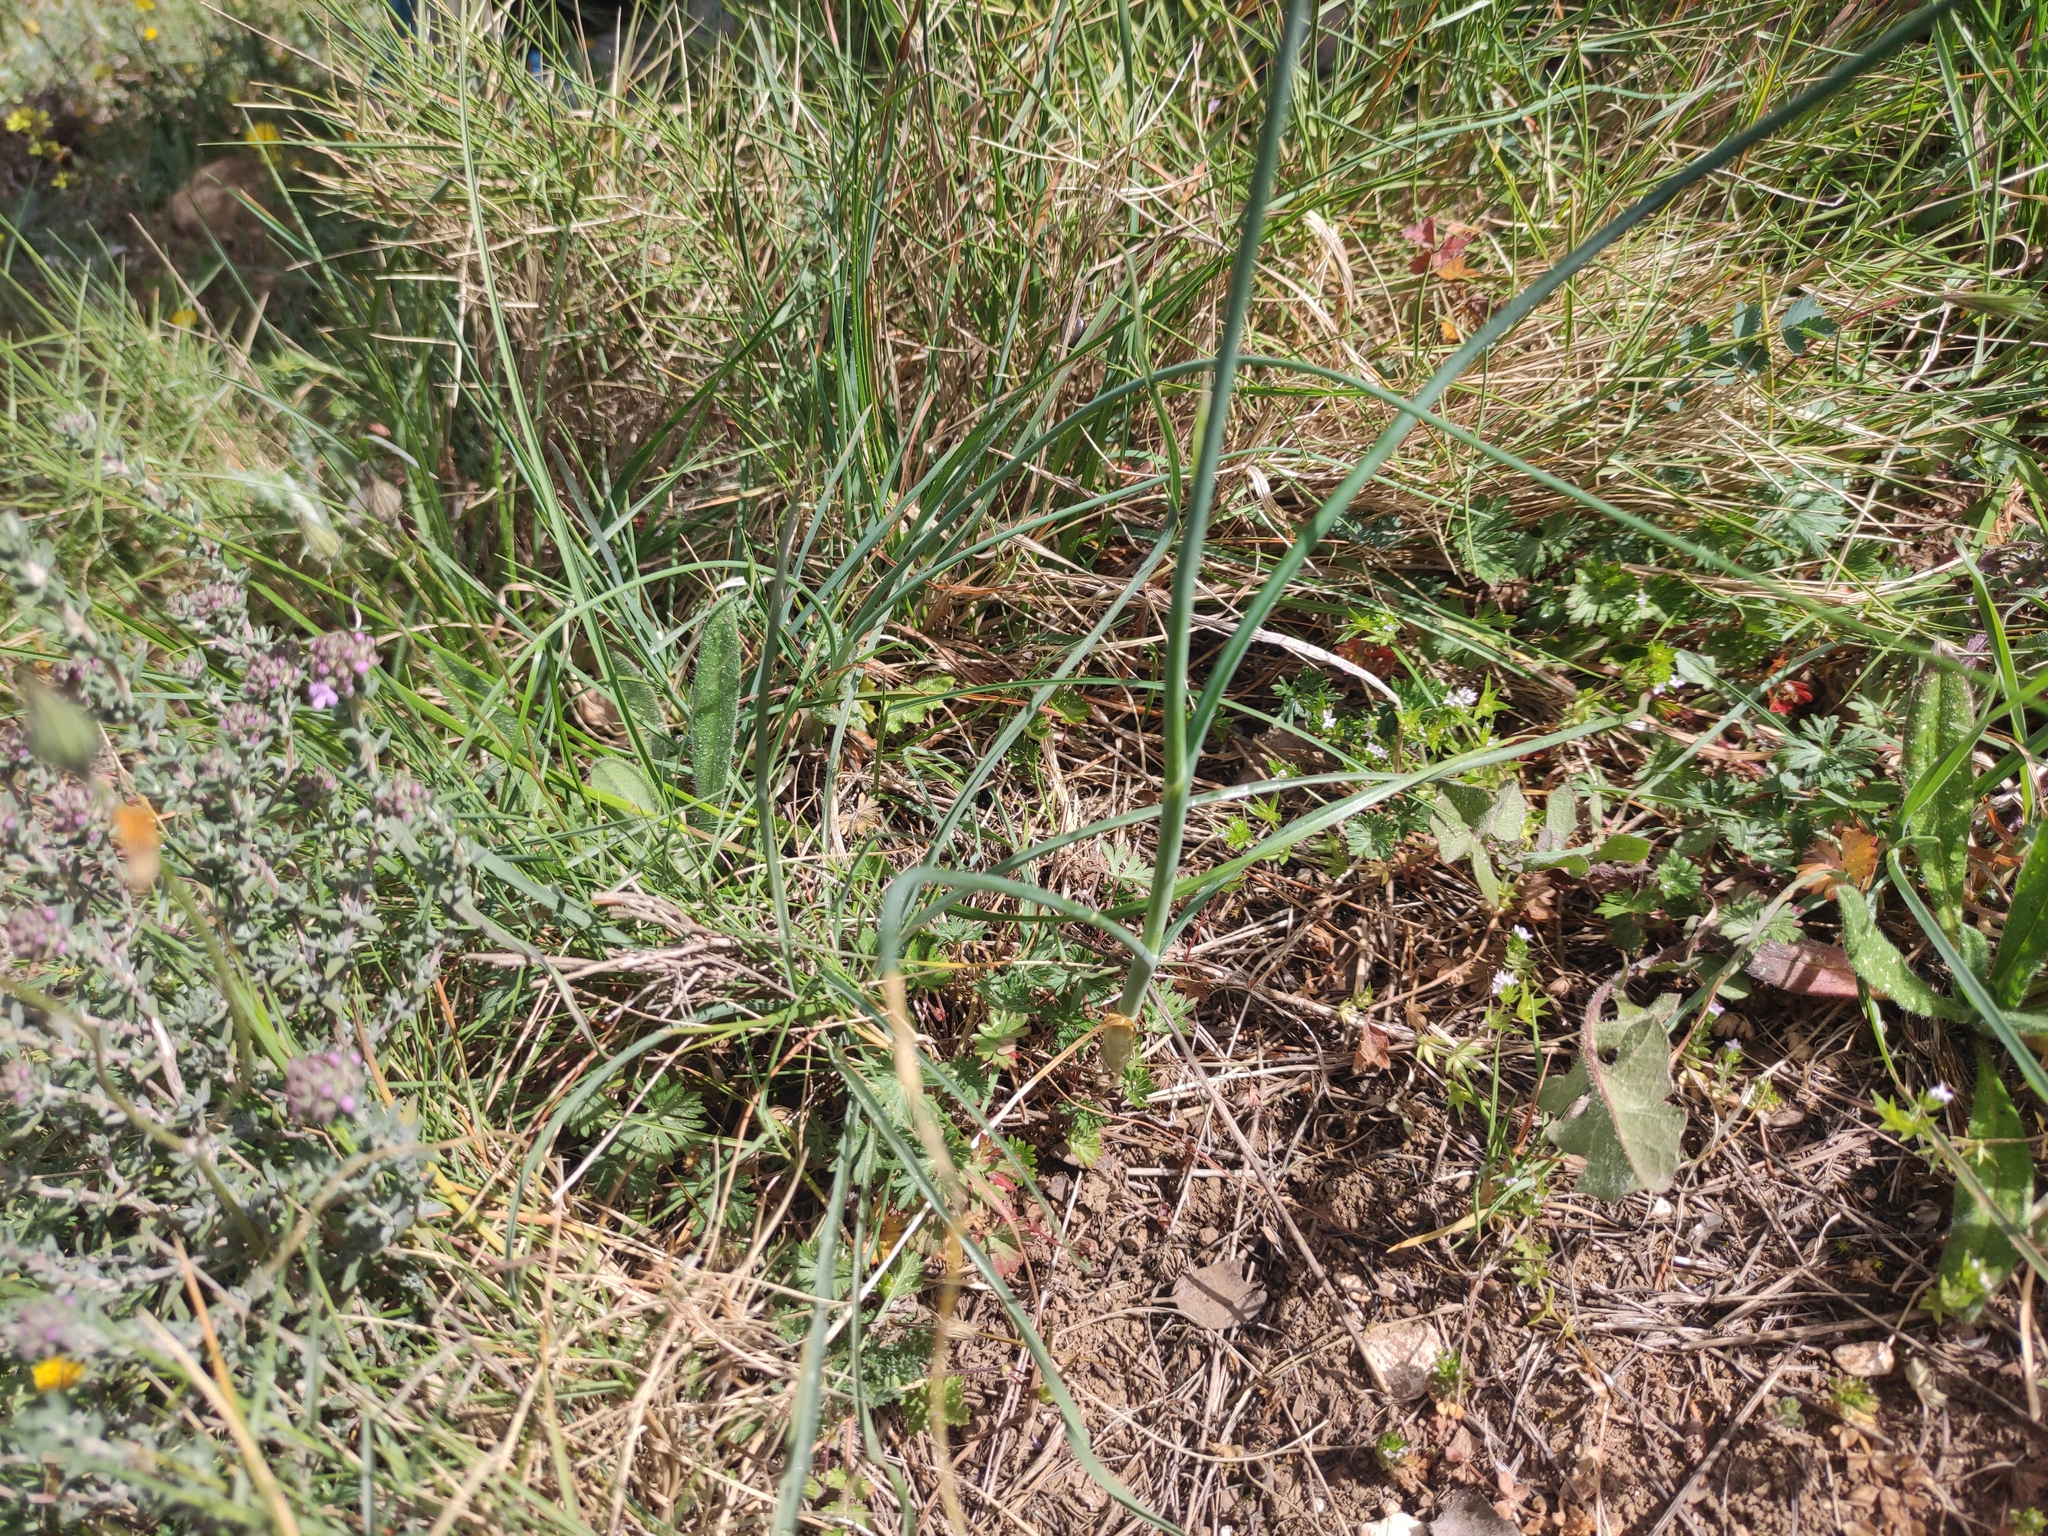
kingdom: Plantae
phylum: Tracheophyta
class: Liliopsida
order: Asparagales
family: Amaryllidaceae
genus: Allium
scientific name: Allium sphaerocephalon
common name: Round-headed leek
